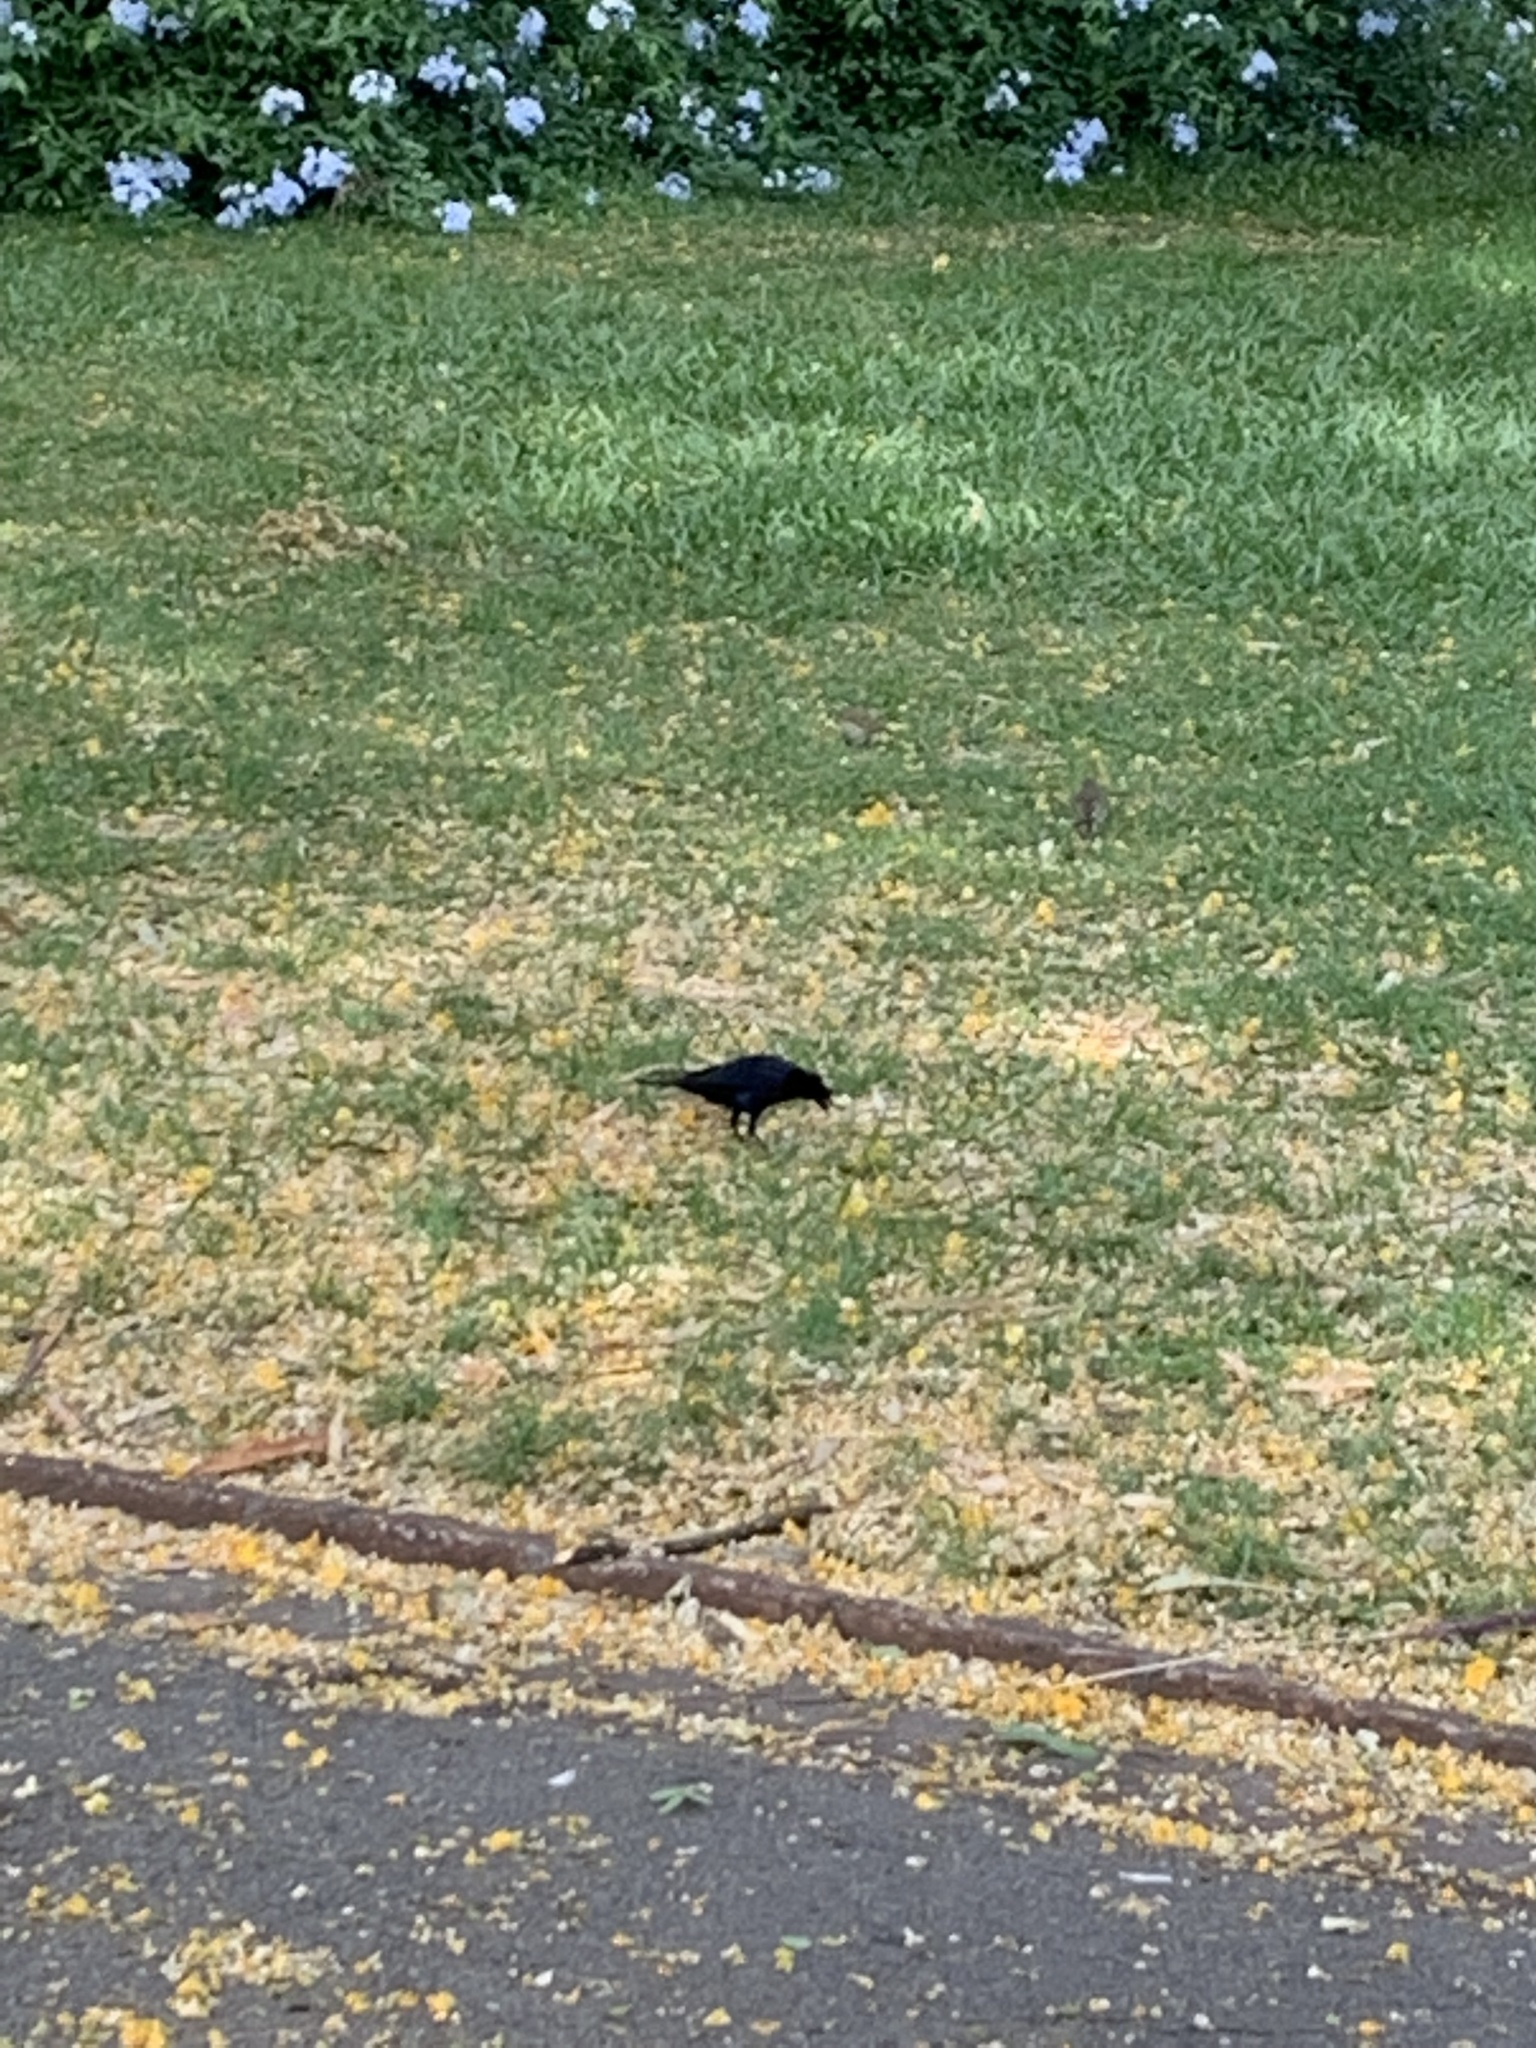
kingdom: Animalia
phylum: Chordata
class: Aves
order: Passeriformes
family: Icteridae
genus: Molothrus
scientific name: Molothrus bonariensis
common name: Shiny cowbird
